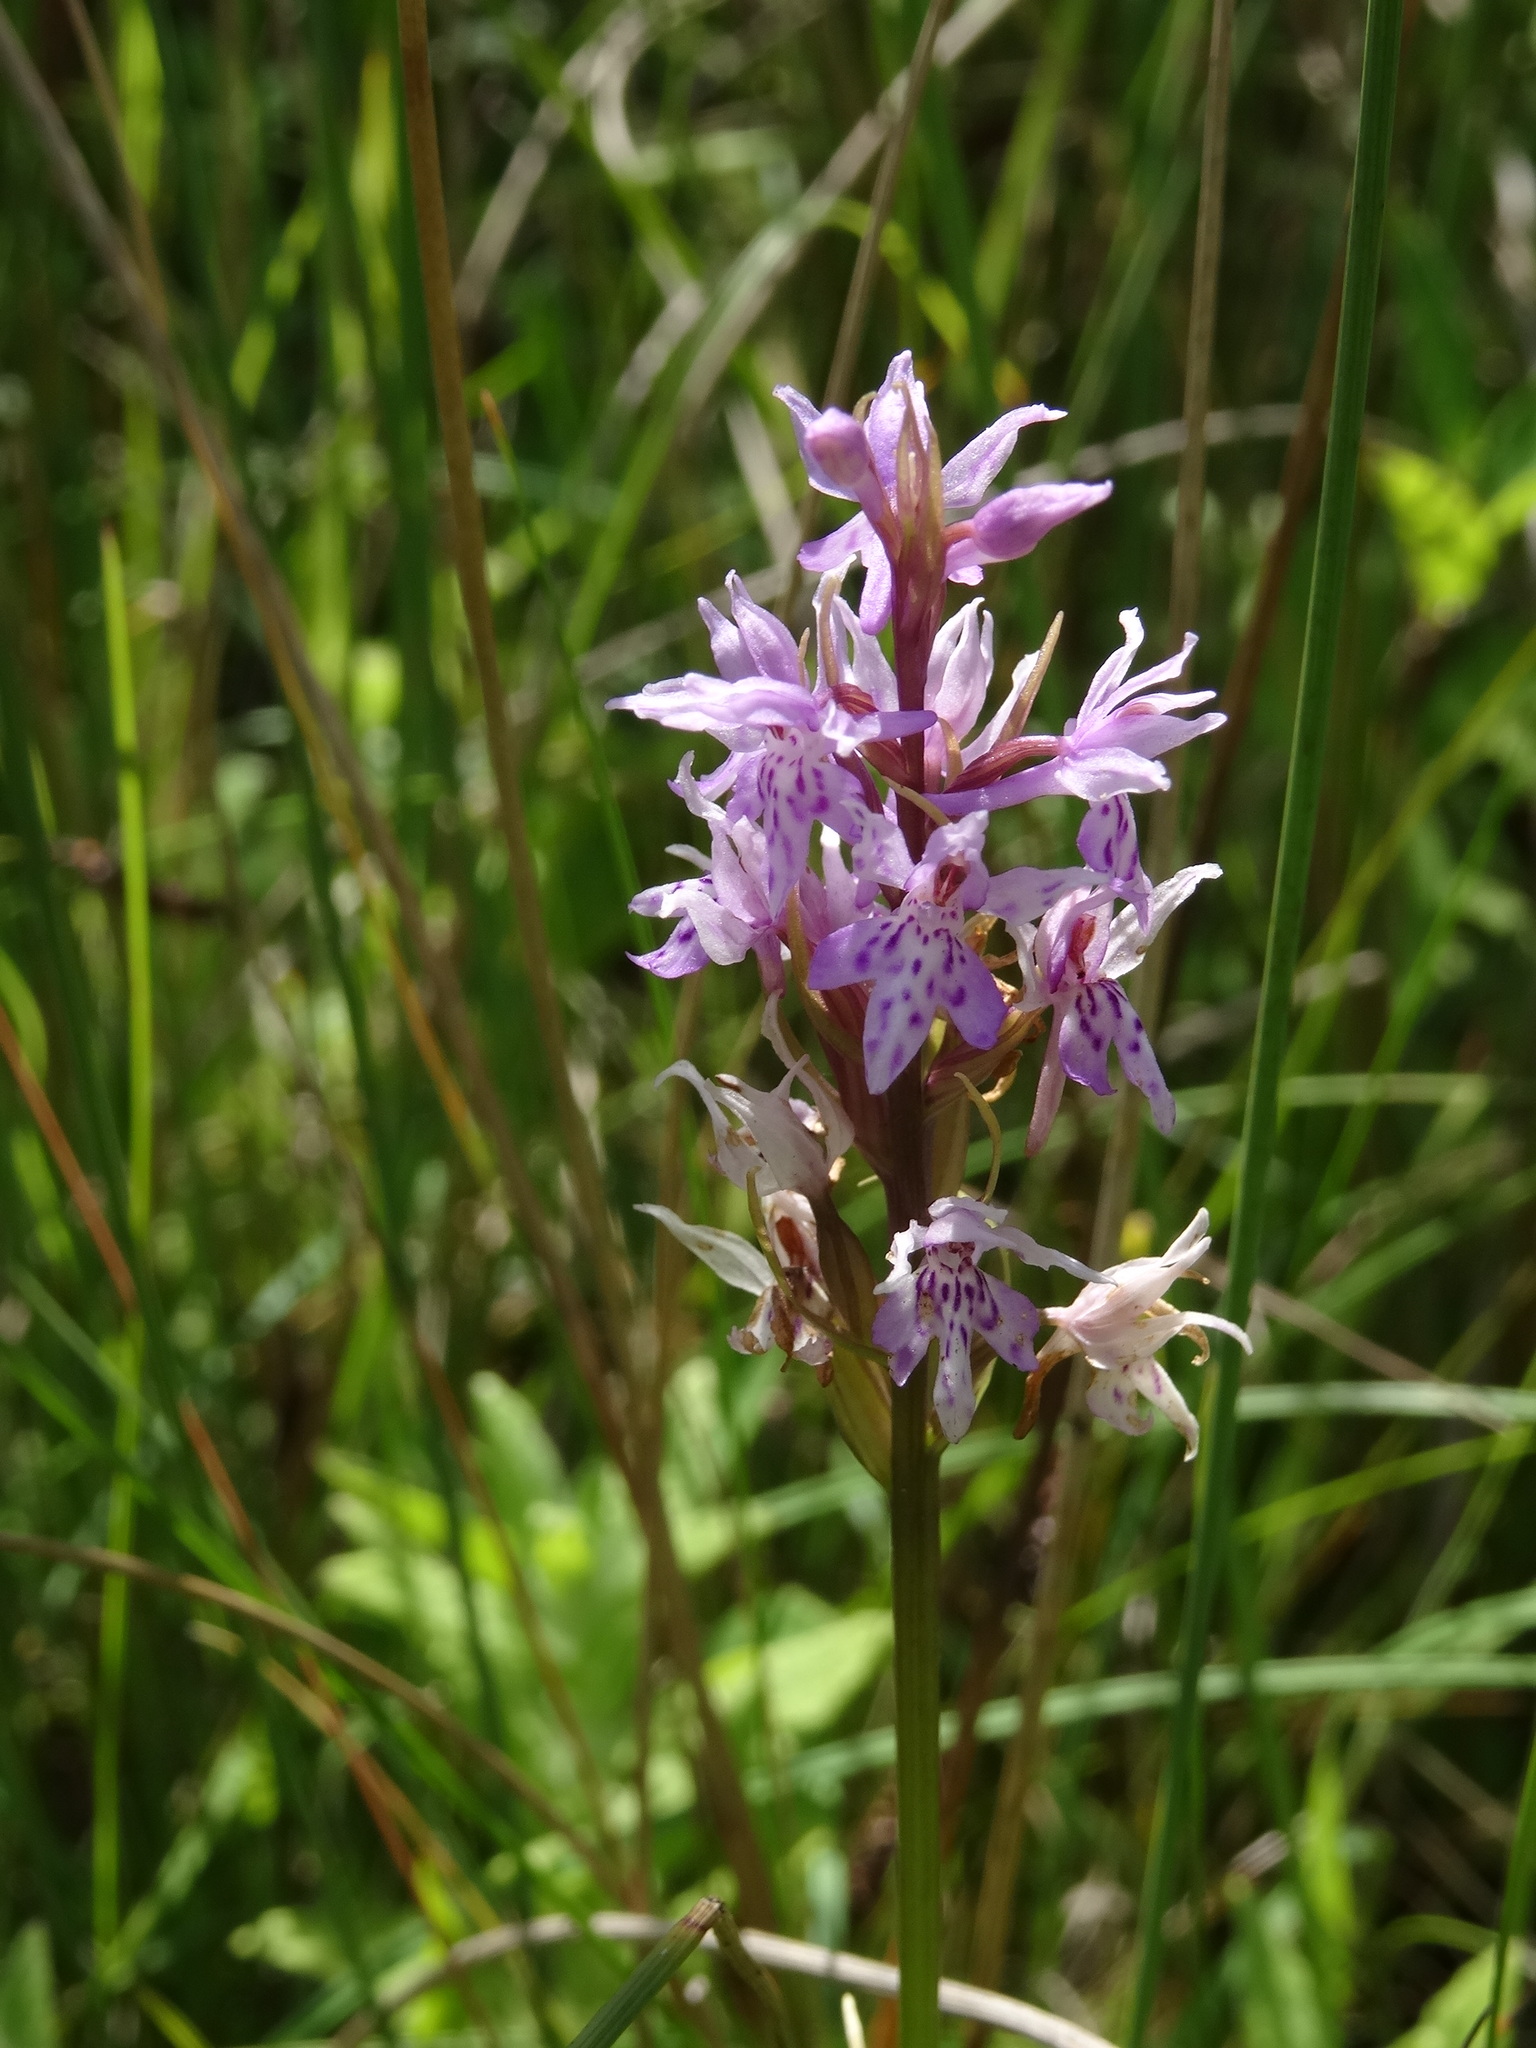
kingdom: Plantae
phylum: Tracheophyta
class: Liliopsida
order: Asparagales
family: Orchidaceae
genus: Dactylorhiza
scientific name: Dactylorhiza maculata
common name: Heath spotted-orchid
